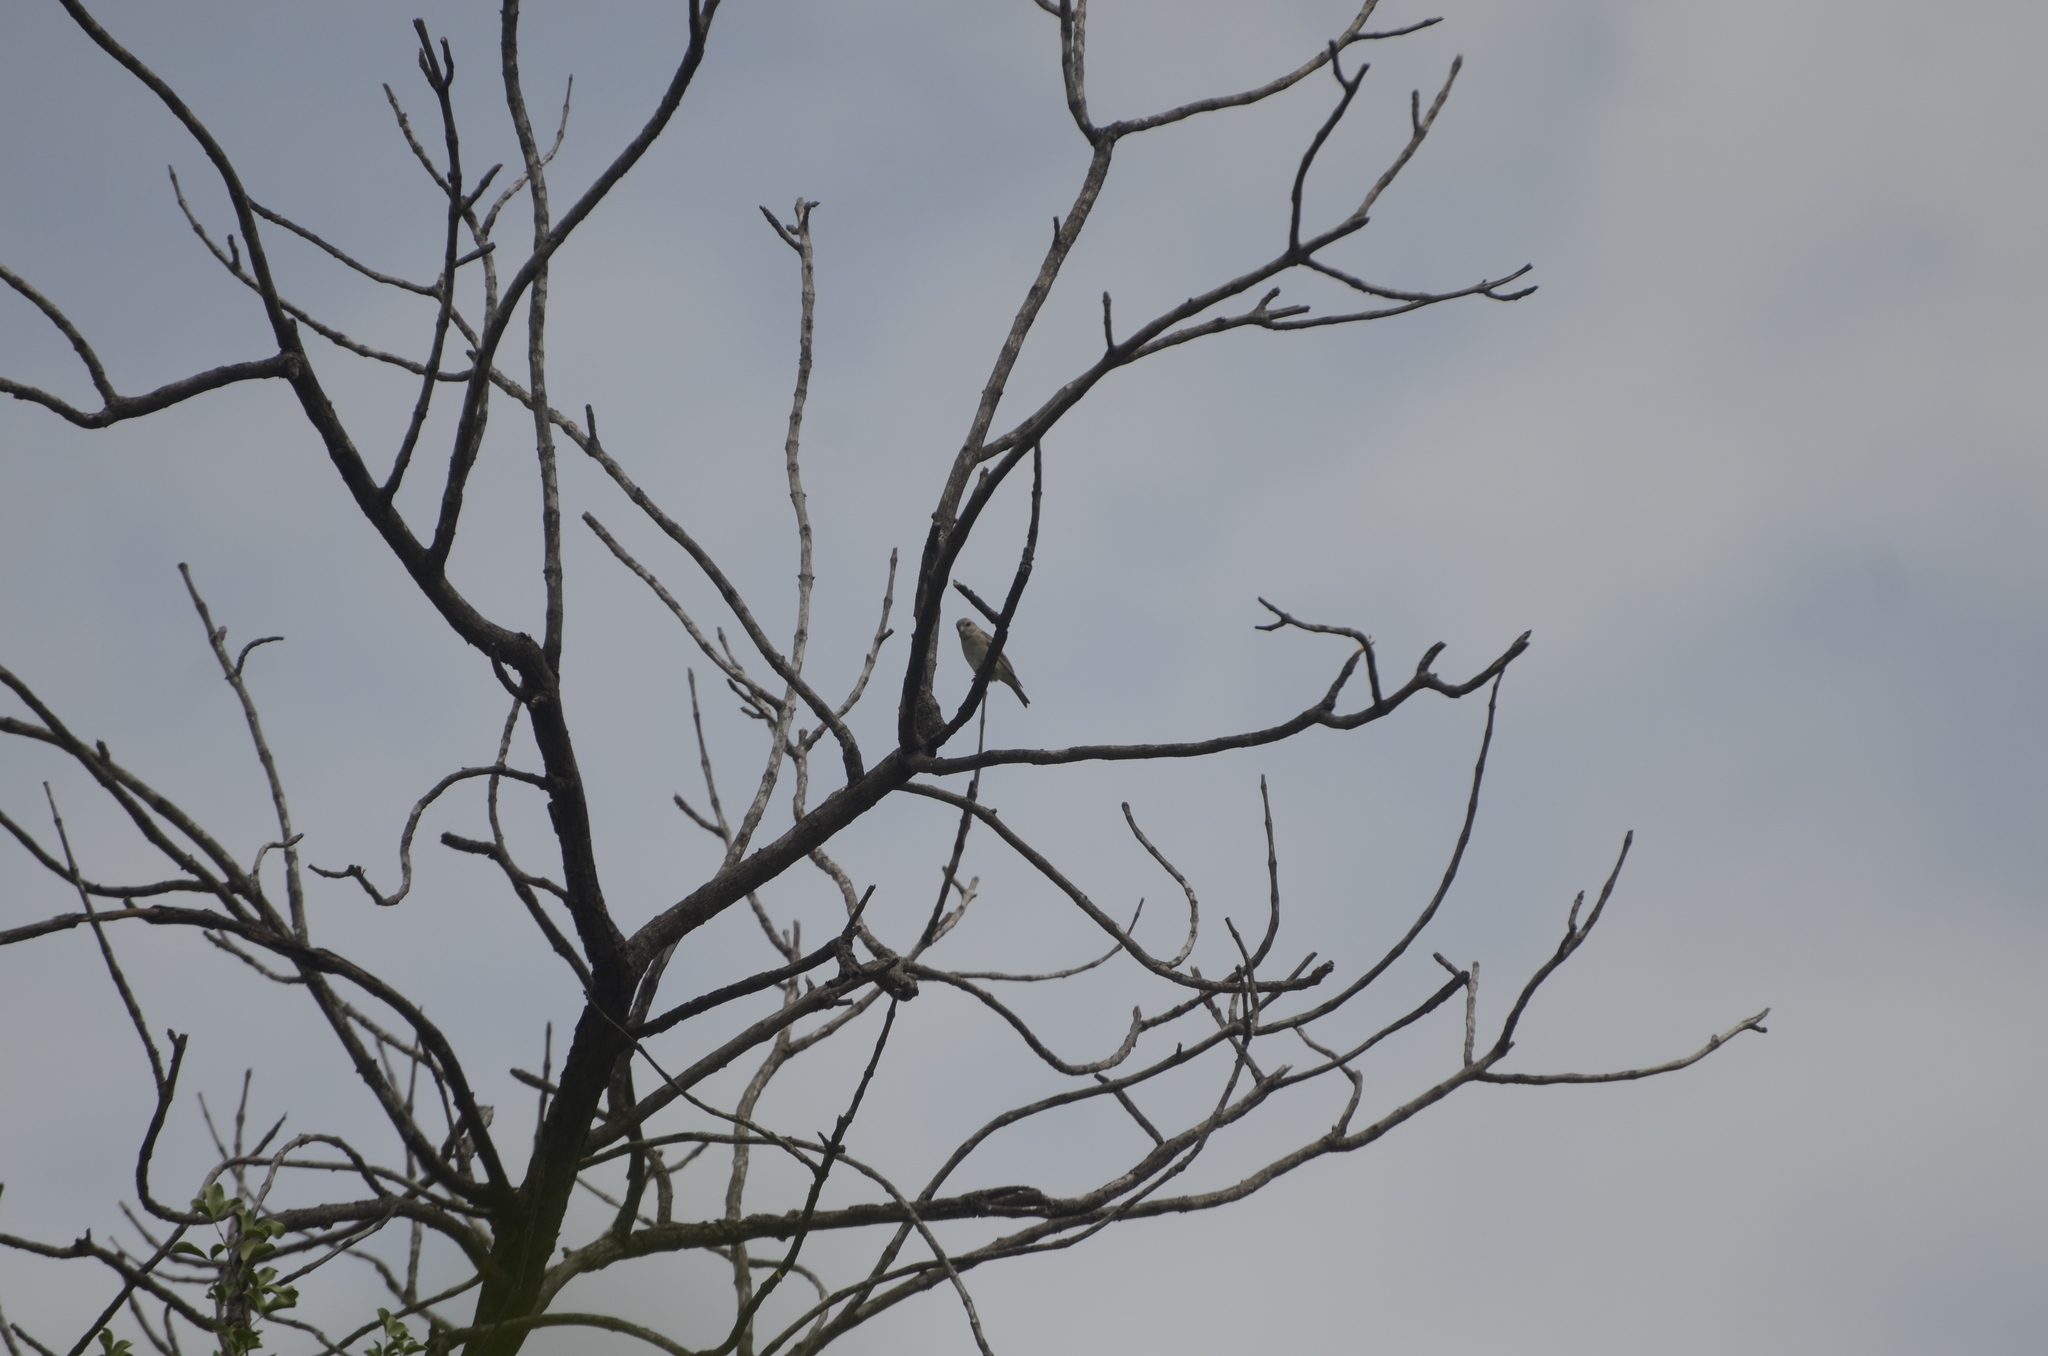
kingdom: Animalia
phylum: Chordata
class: Aves
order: Passeriformes
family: Passeridae
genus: Passer
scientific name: Passer domesticus
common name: House sparrow
